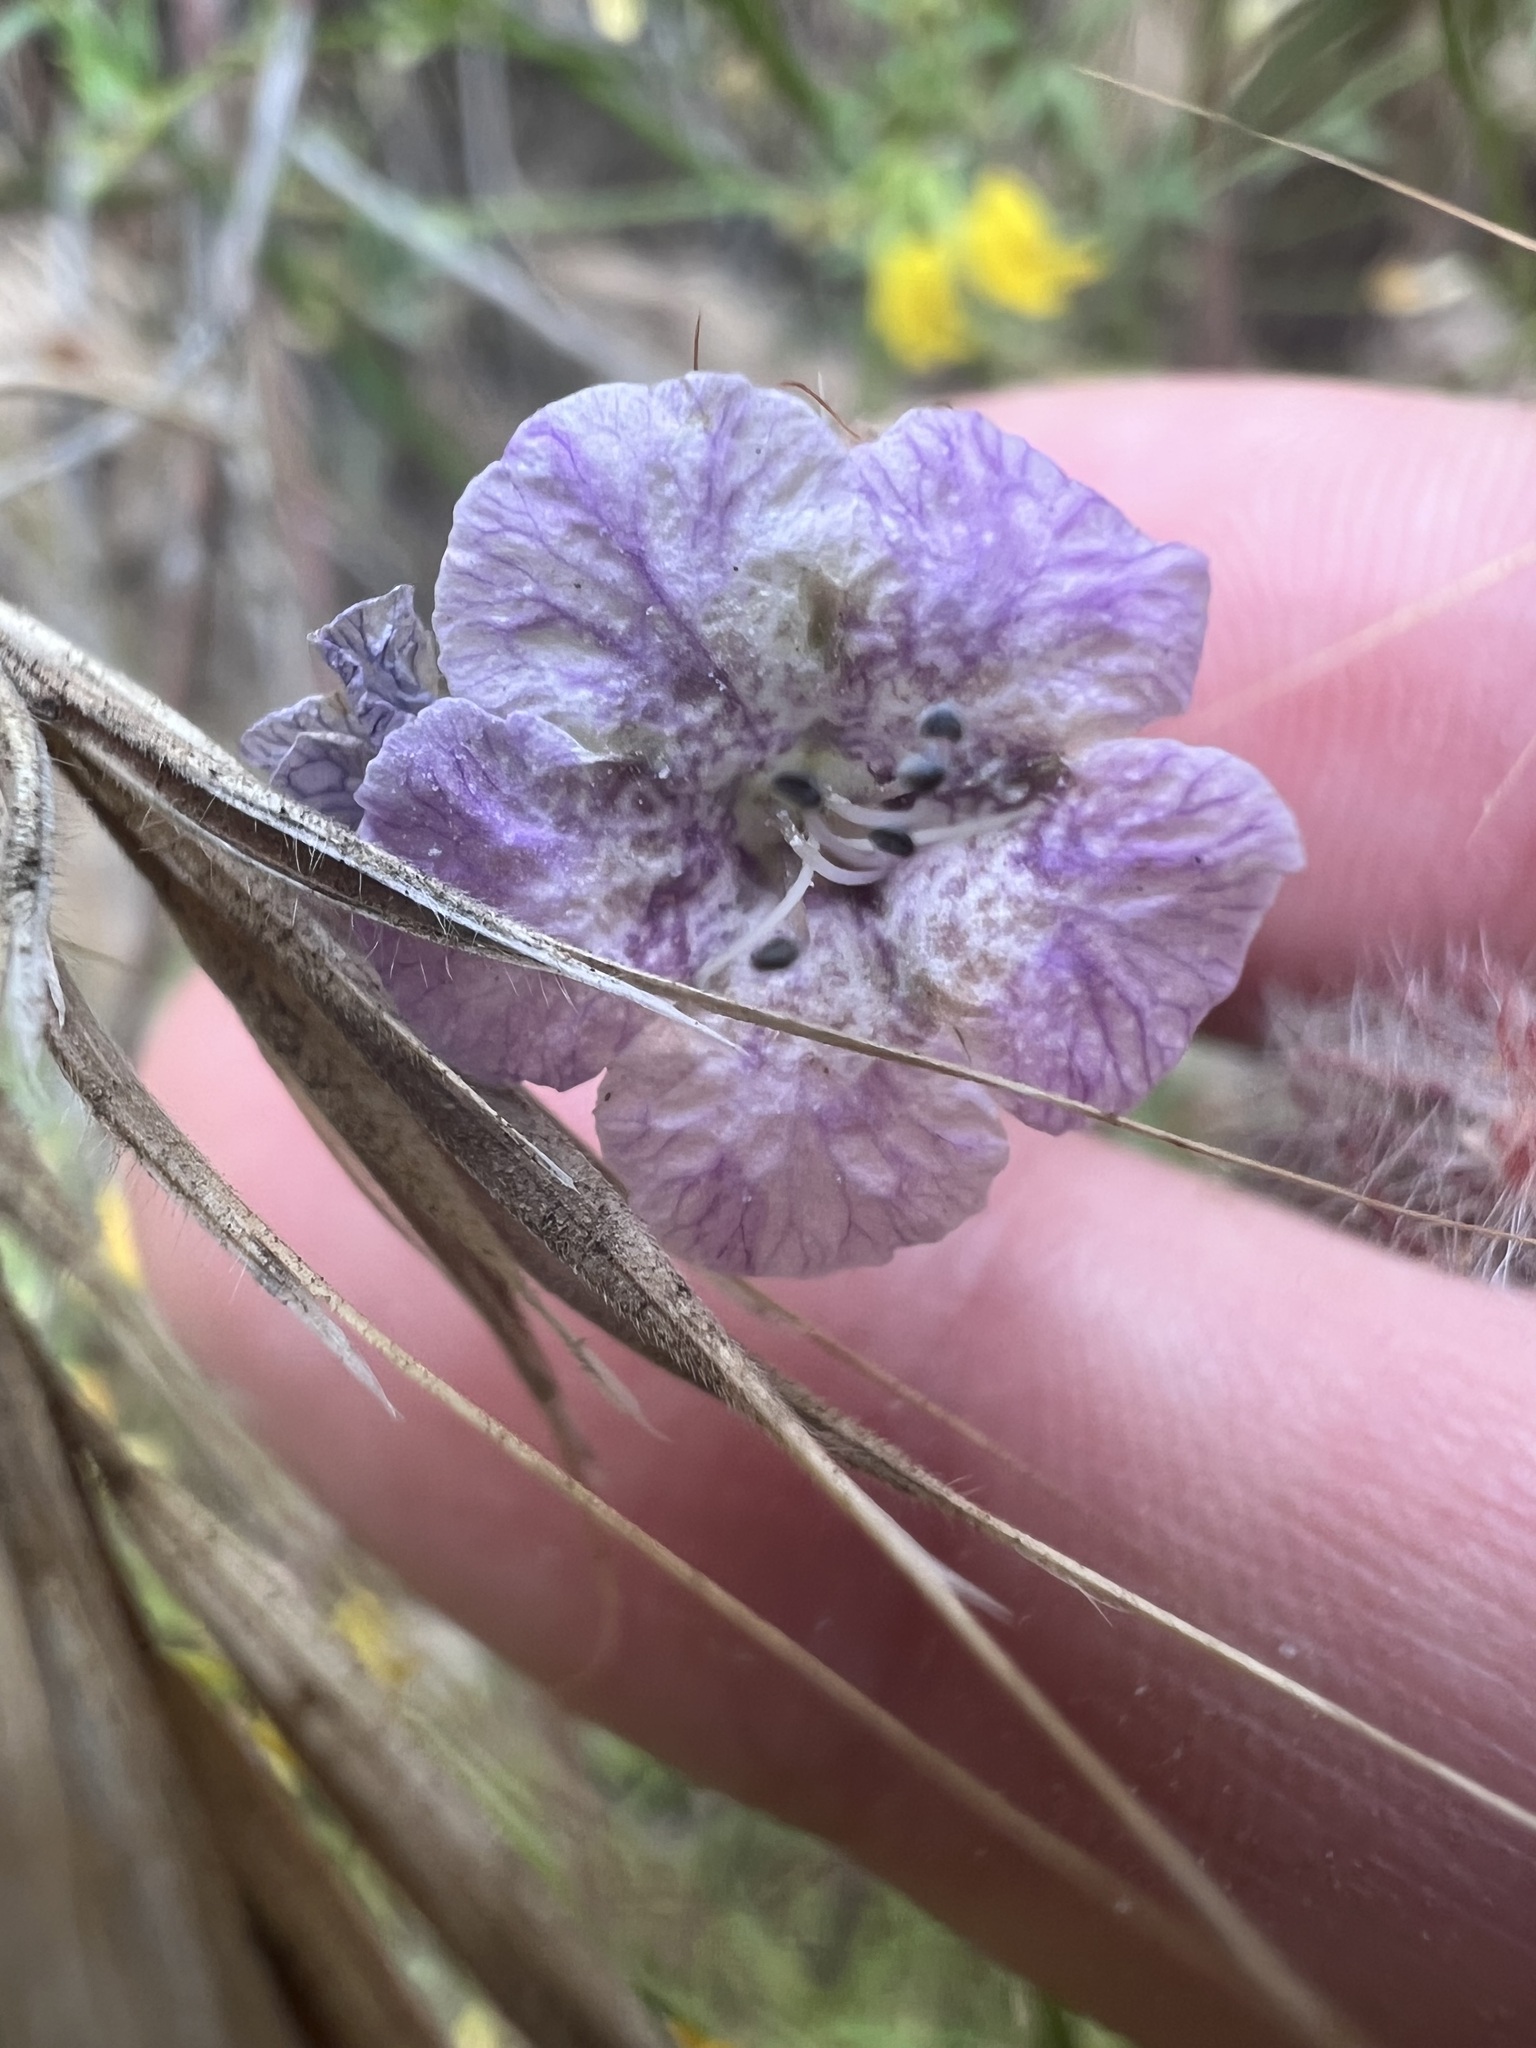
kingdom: Plantae
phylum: Tracheophyta
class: Magnoliopsida
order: Boraginales
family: Hydrophyllaceae
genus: Phacelia
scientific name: Phacelia cicutaria
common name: Caterpillar phacelia
